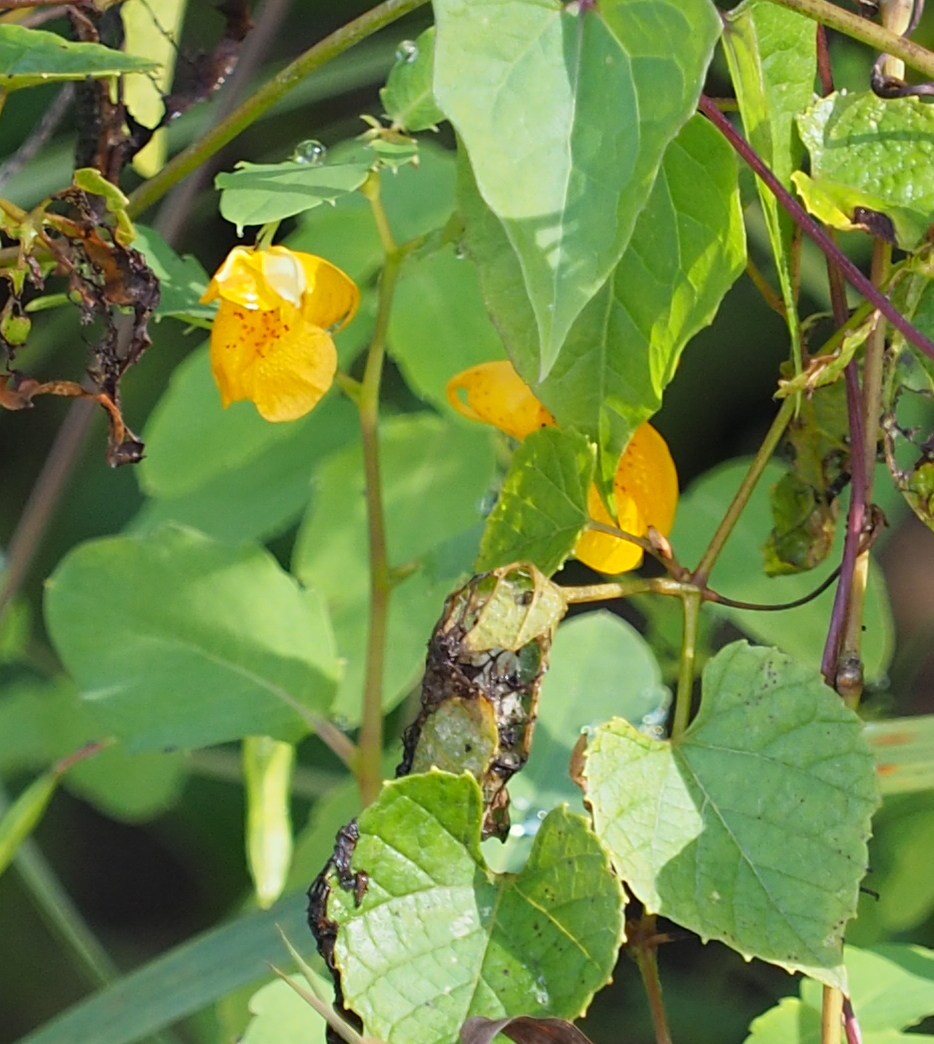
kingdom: Plantae
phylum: Tracheophyta
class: Magnoliopsida
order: Ericales
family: Balsaminaceae
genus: Impatiens
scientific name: Impatiens capensis
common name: Orange balsam
